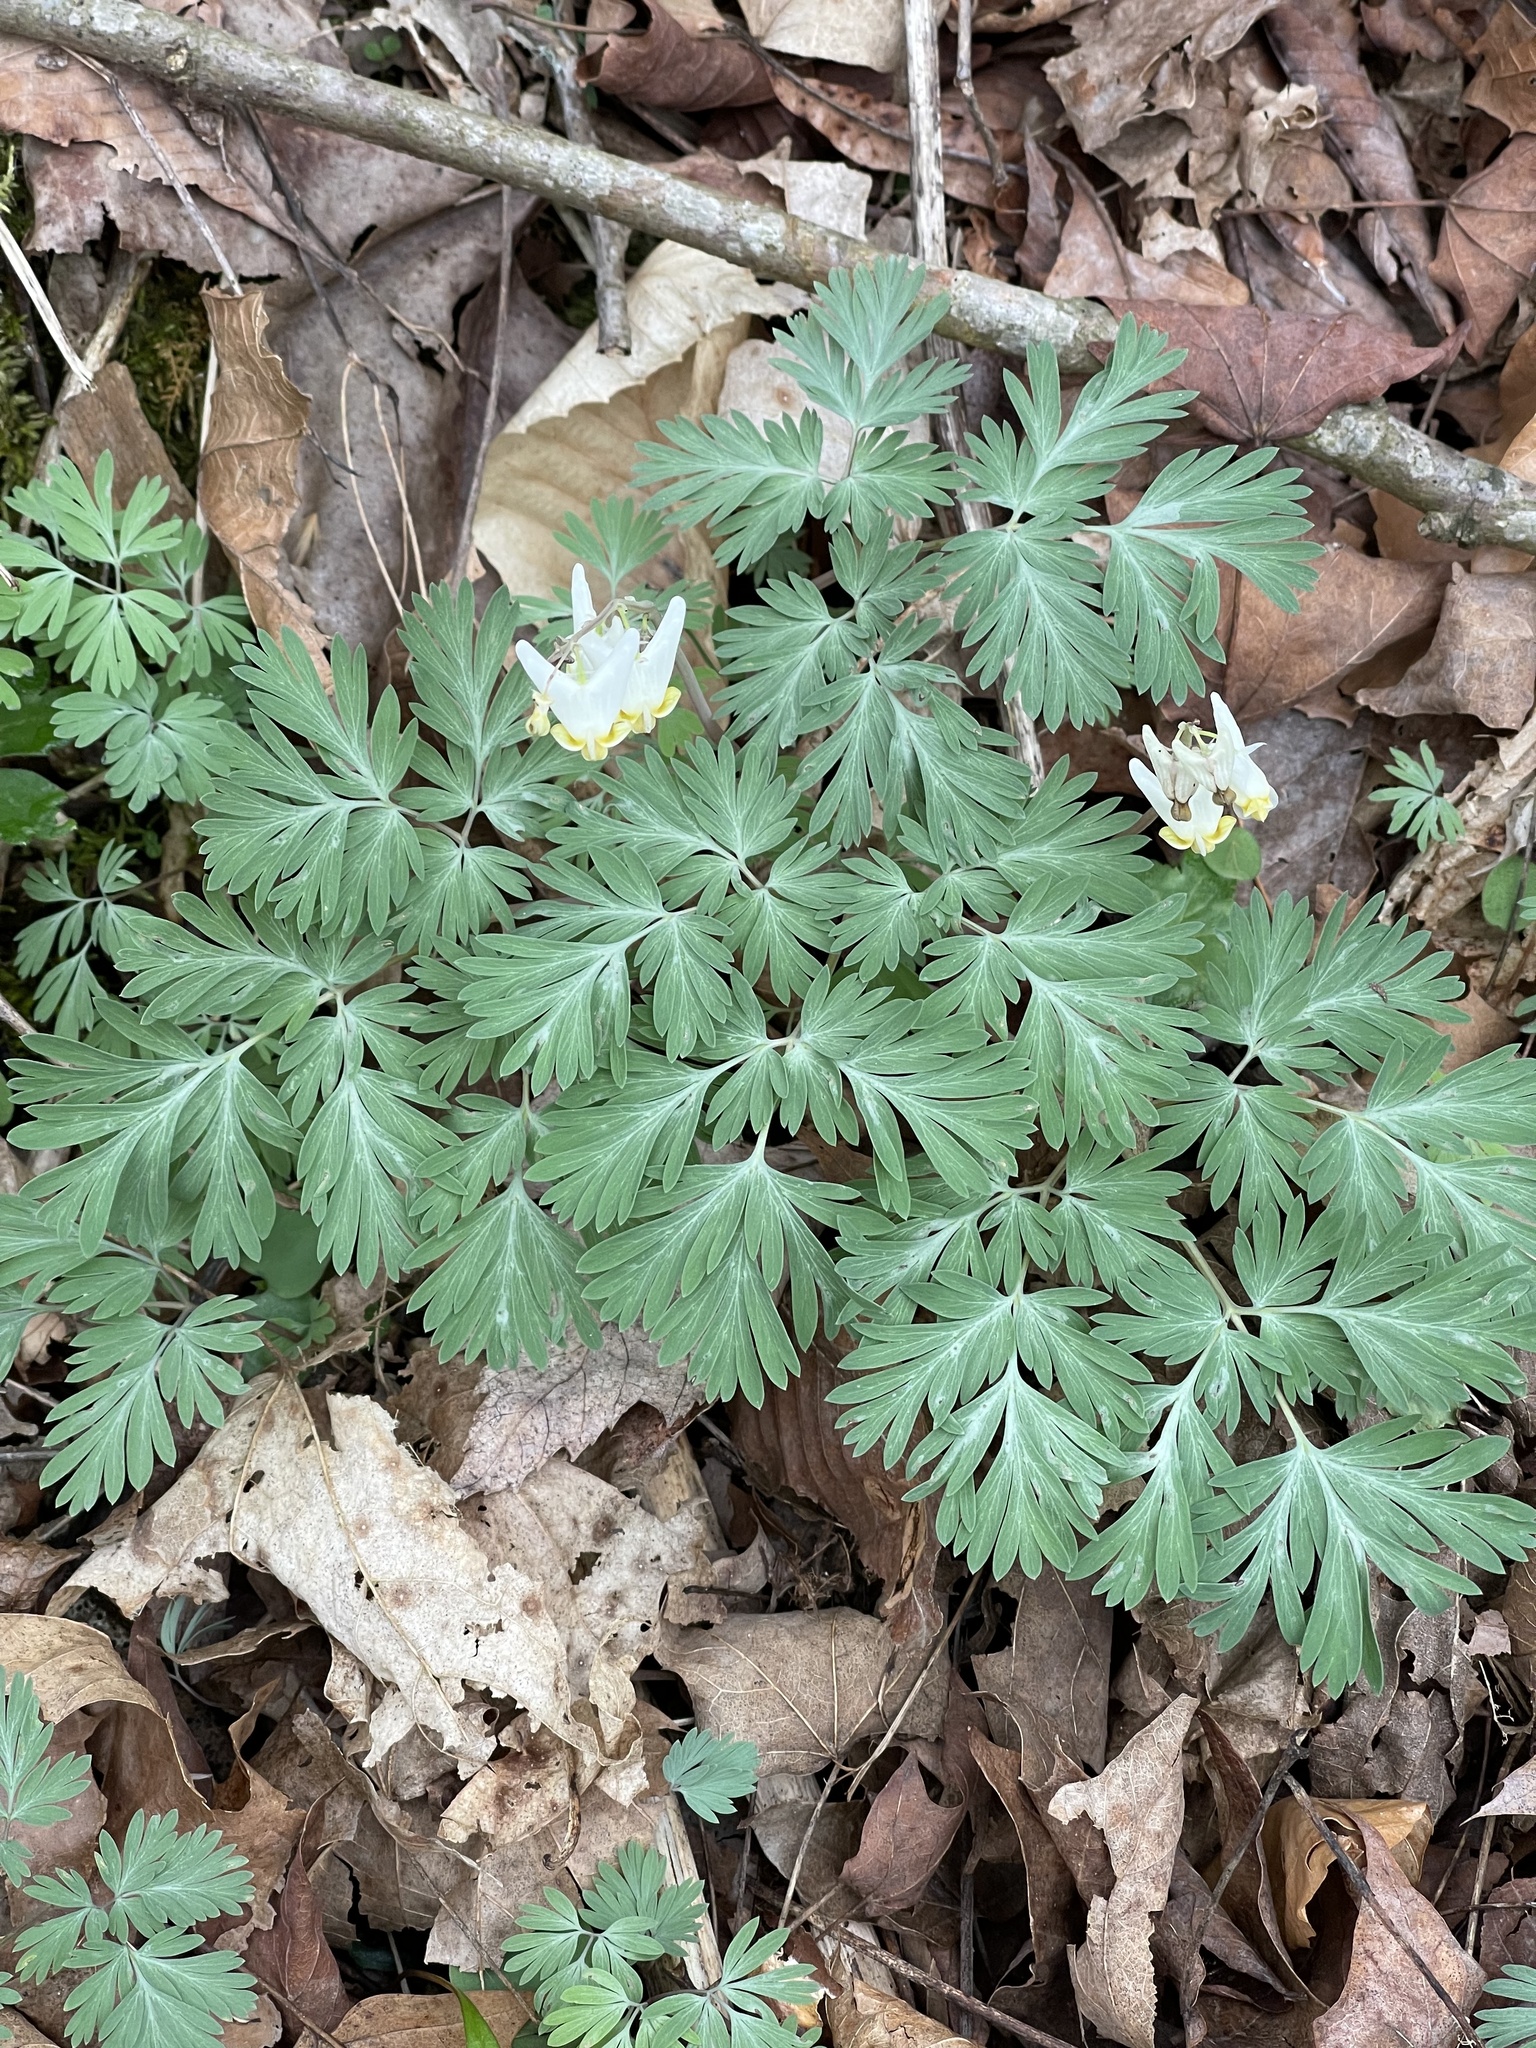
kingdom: Plantae
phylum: Tracheophyta
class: Magnoliopsida
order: Ranunculales
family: Papaveraceae
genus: Dicentra
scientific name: Dicentra cucullaria
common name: Dutchman's breeches
